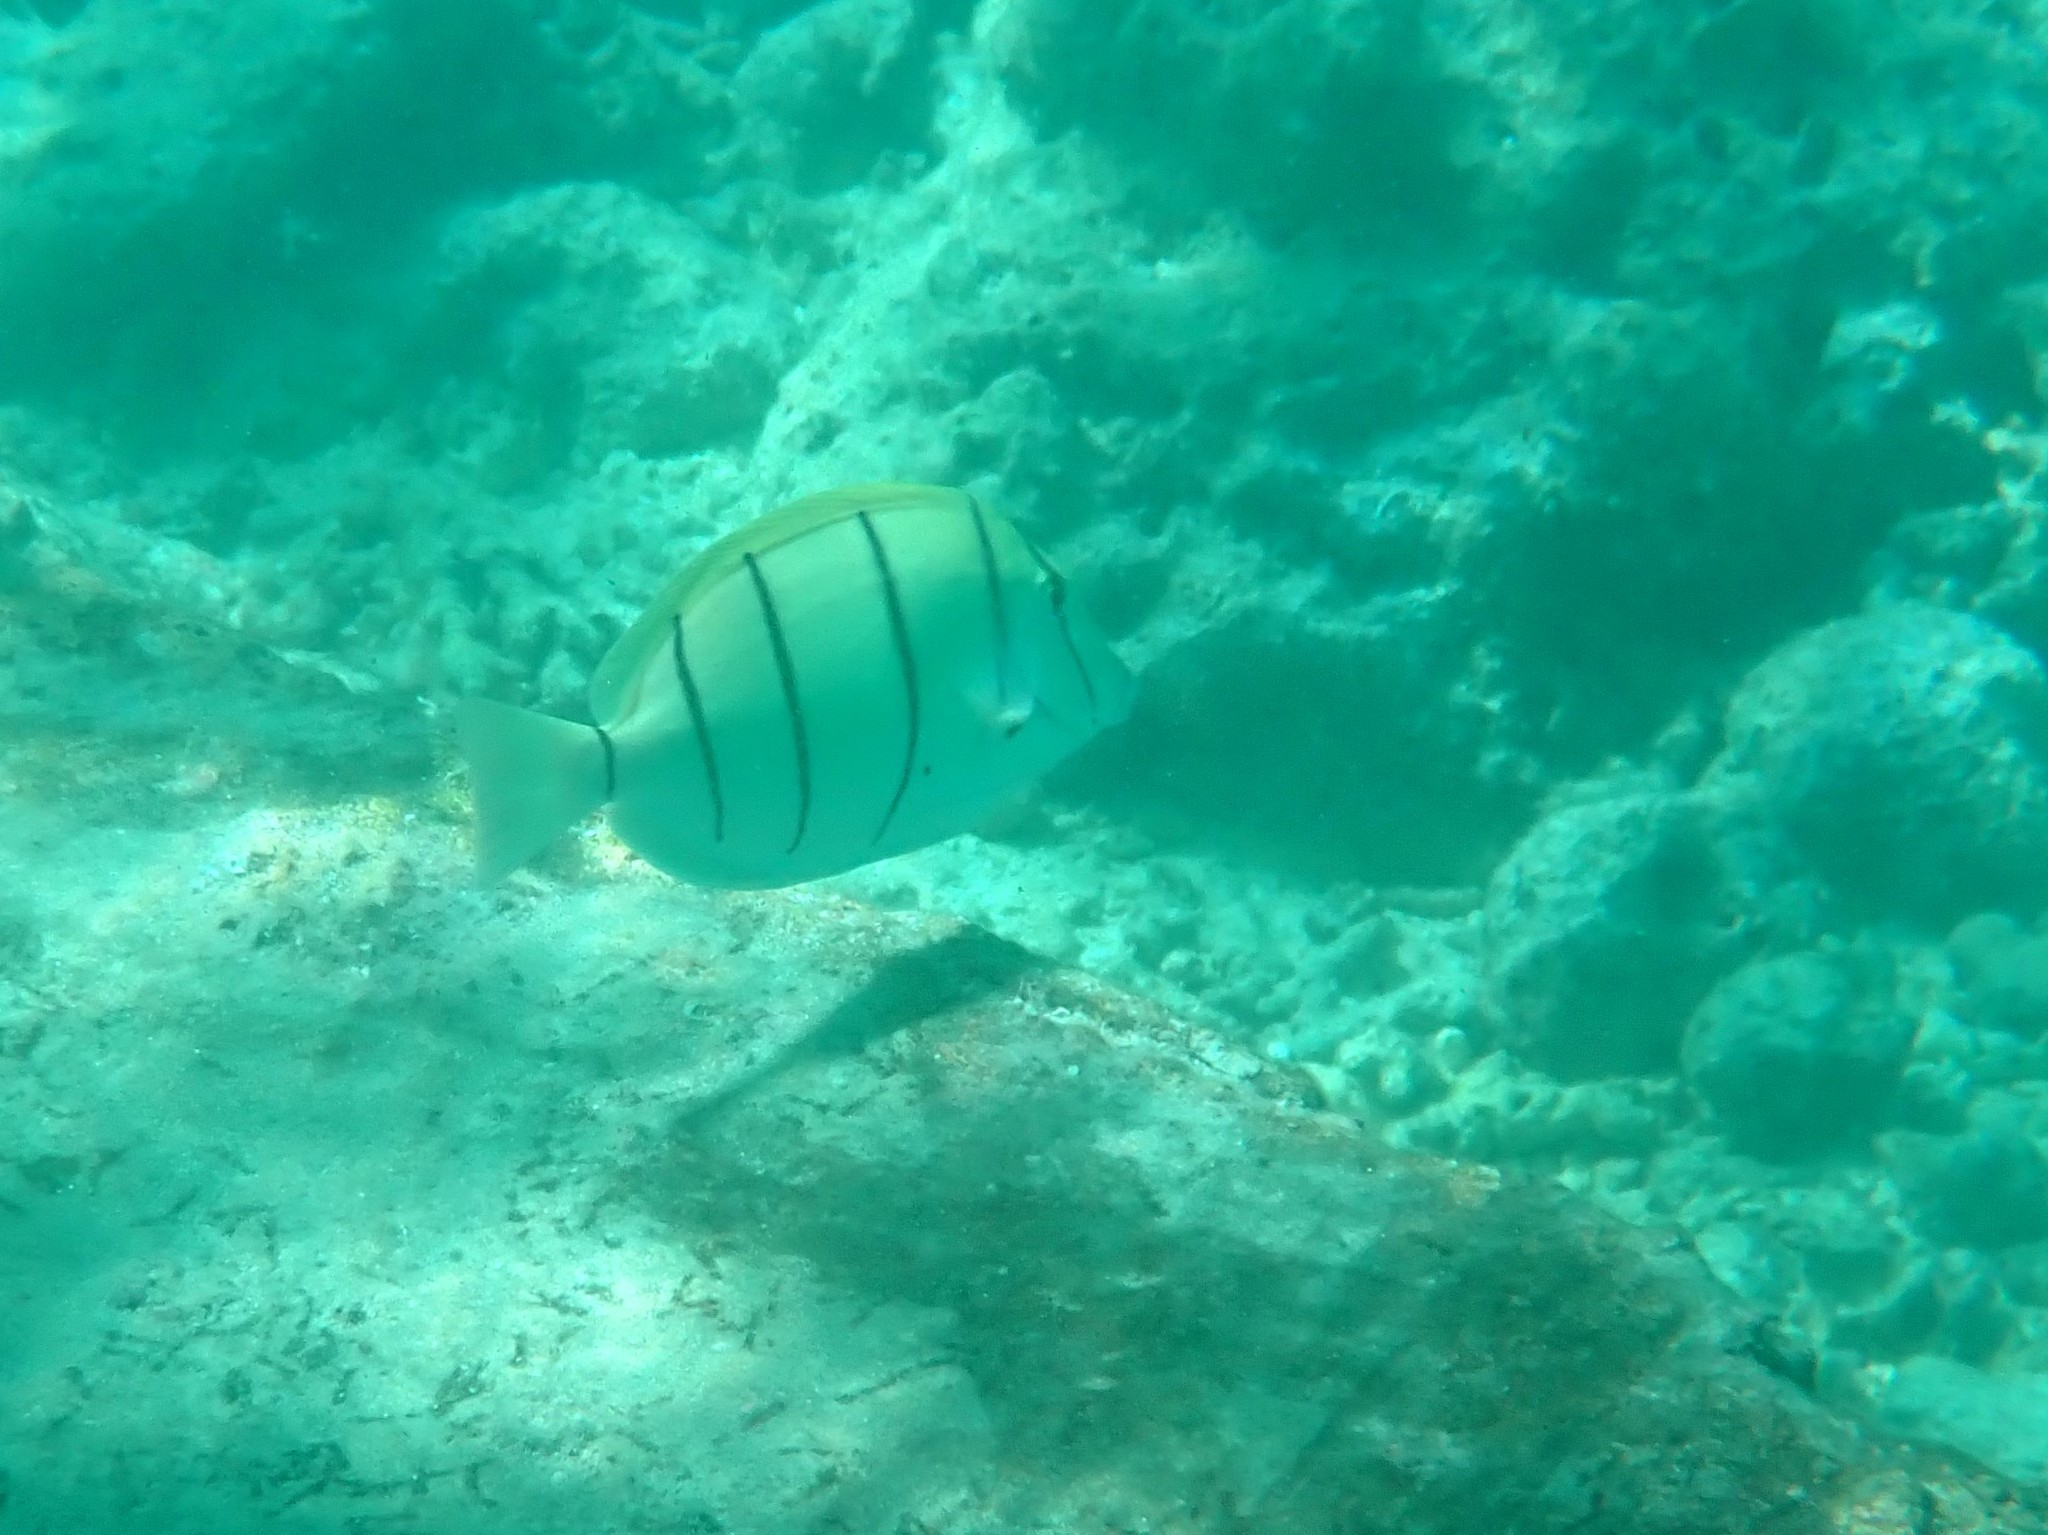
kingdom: Animalia
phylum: Chordata
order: Perciformes
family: Acanthuridae
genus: Acanthurus
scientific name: Acanthurus triostegus
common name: Convict surgeonfish
